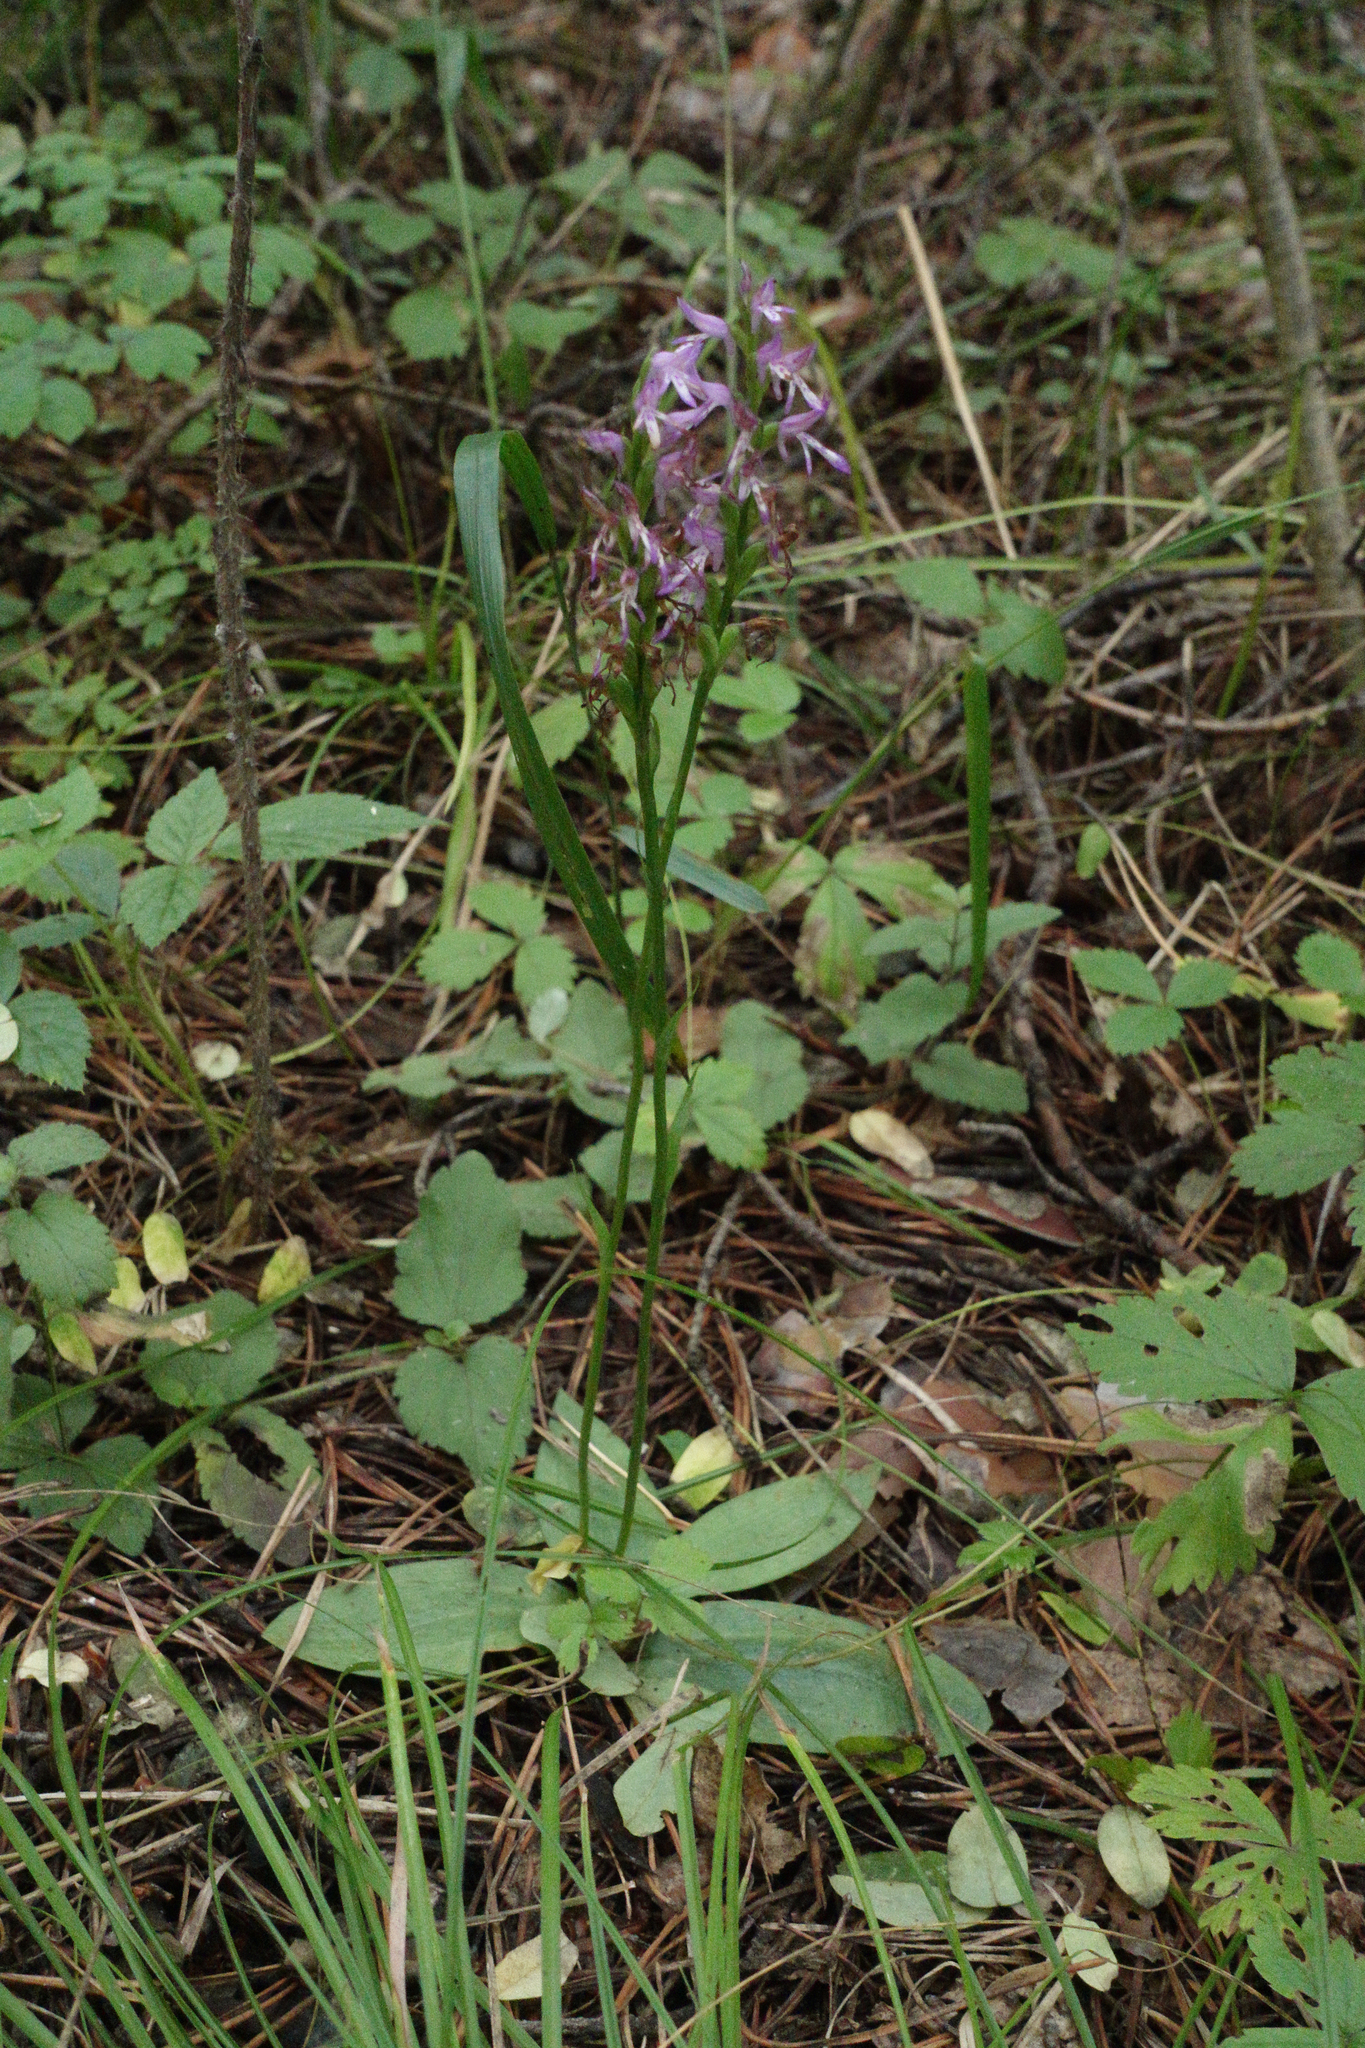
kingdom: Plantae
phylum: Tracheophyta
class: Liliopsida
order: Asparagales
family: Orchidaceae
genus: Hemipilia
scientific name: Hemipilia cucullata
